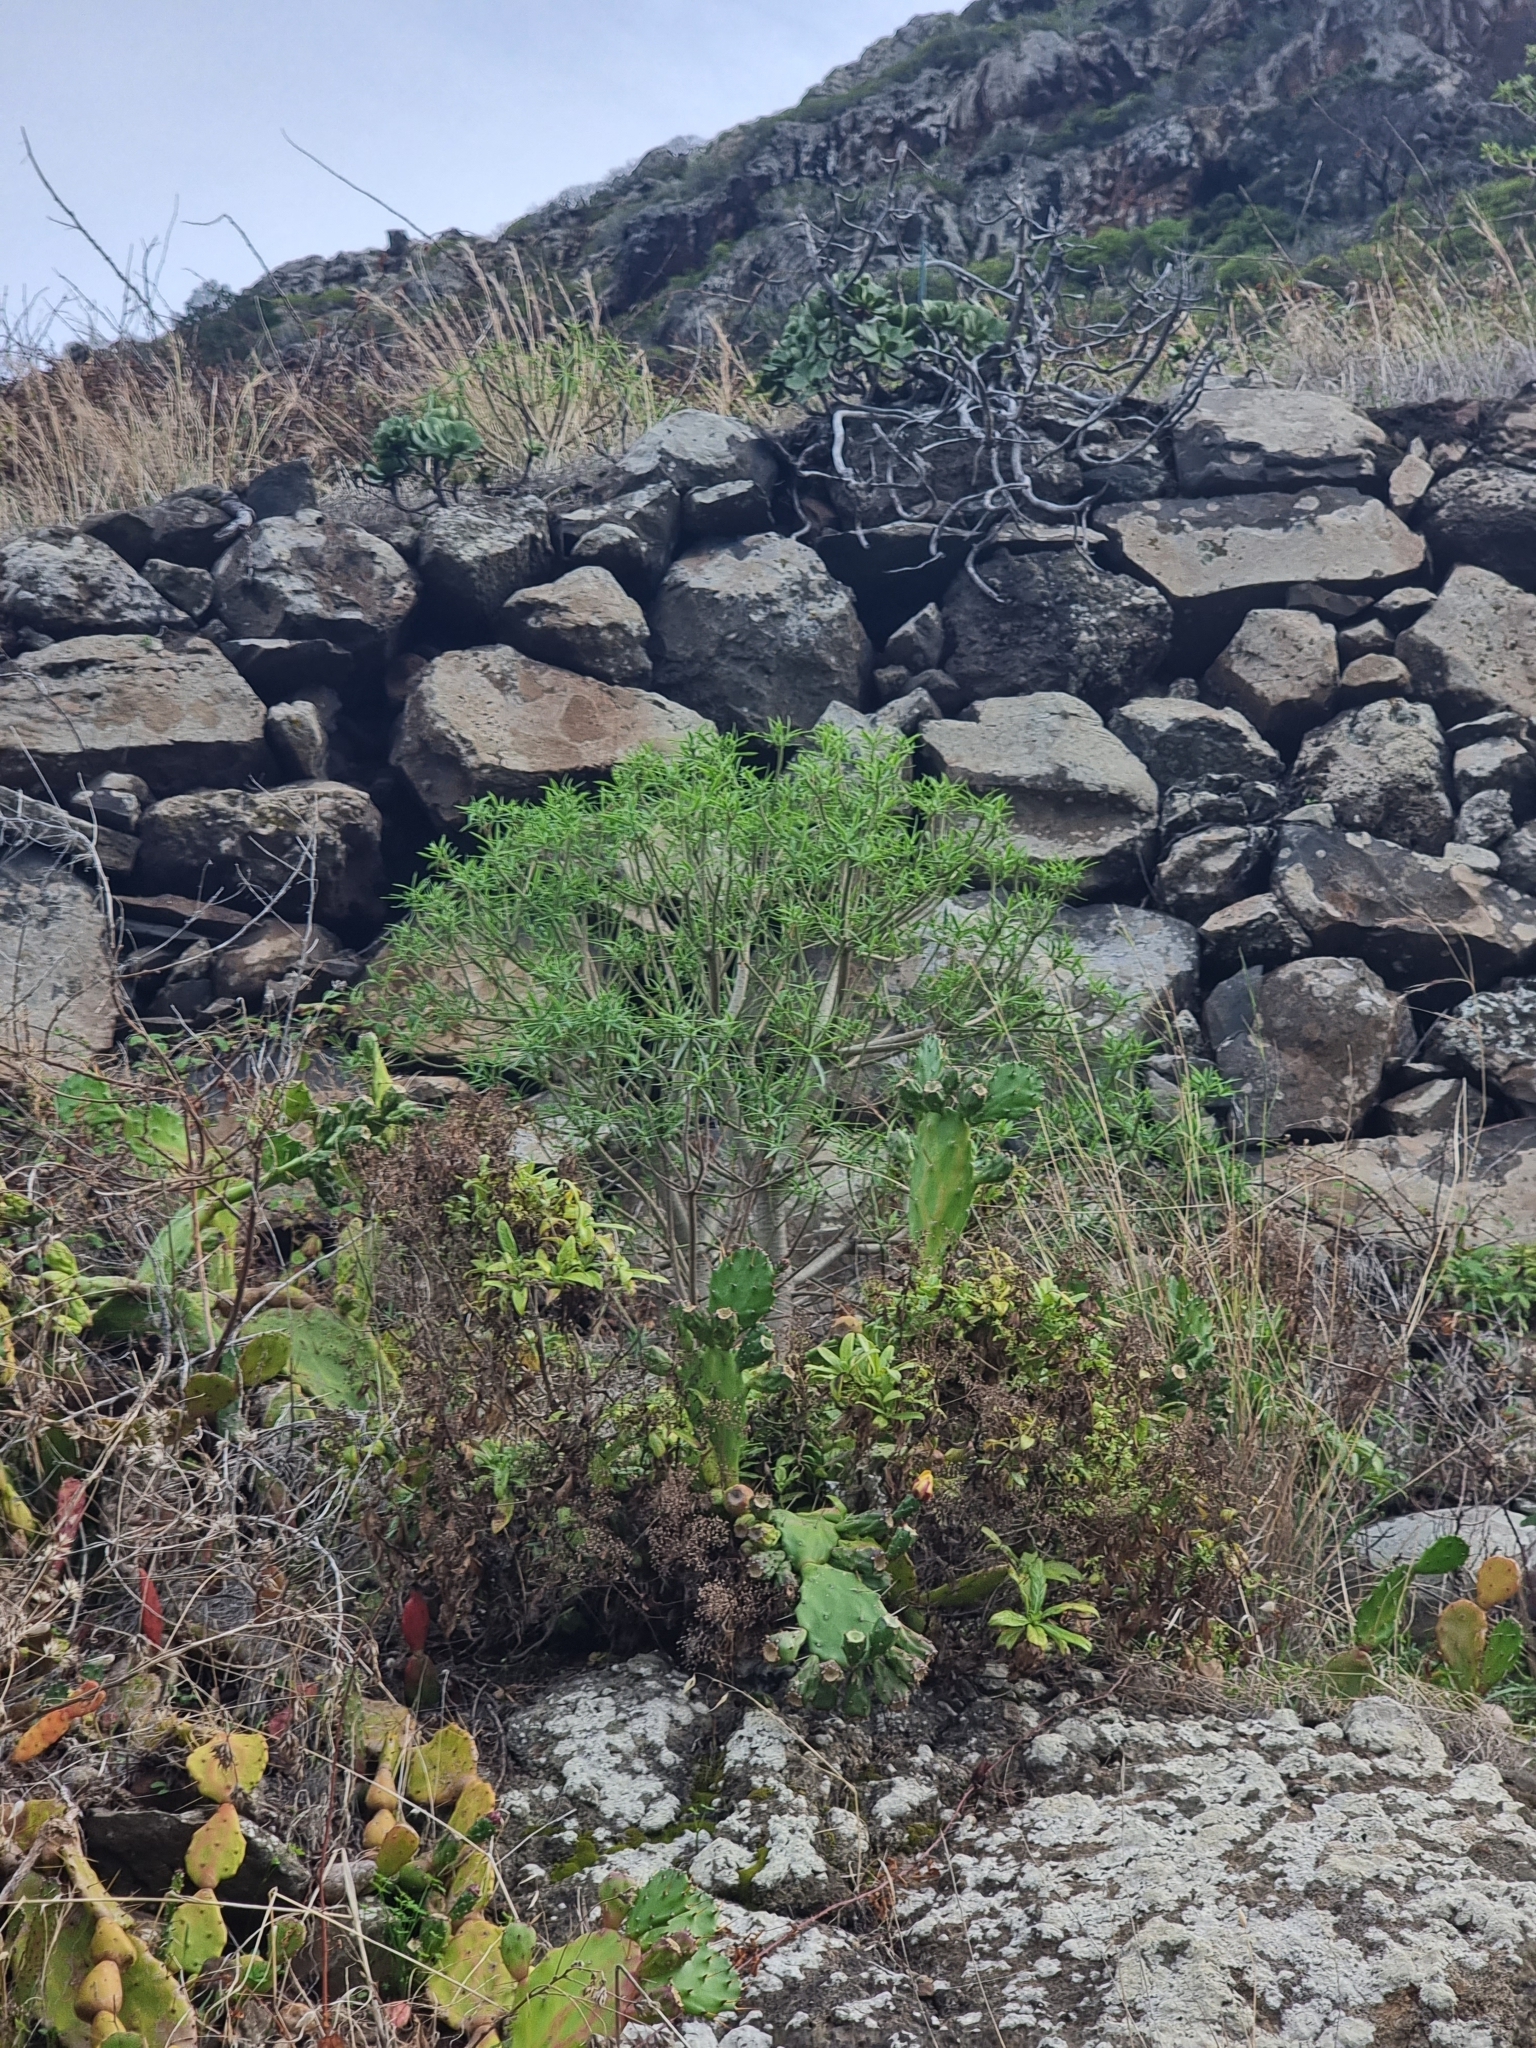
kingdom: Plantae
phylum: Tracheophyta
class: Magnoliopsida
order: Malpighiales
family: Euphorbiaceae
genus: Euphorbia
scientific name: Euphorbia piscatoria
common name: Fish-stunning spurge
